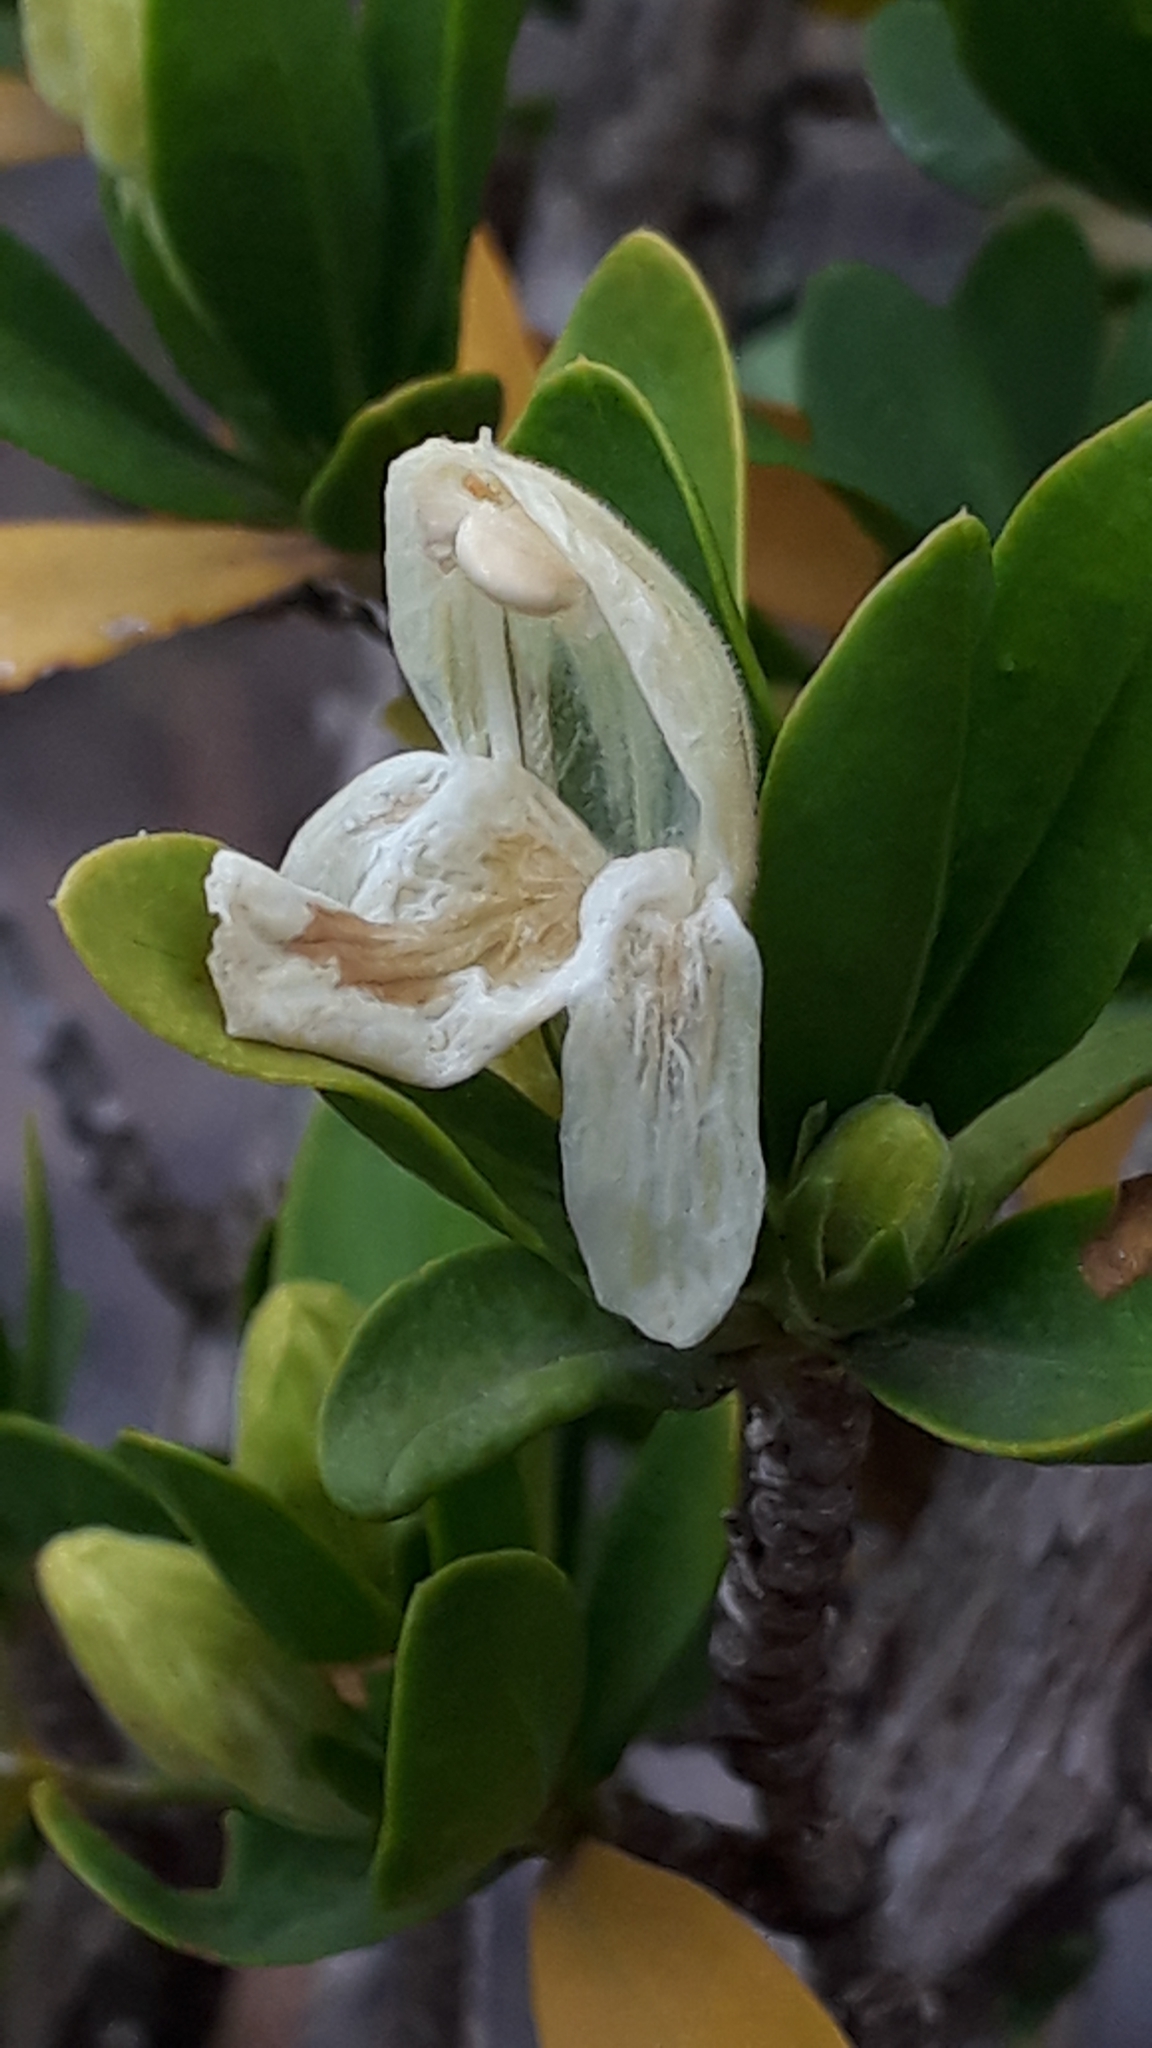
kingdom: Plantae
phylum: Tracheophyta
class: Magnoliopsida
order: Lamiales
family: Acanthaceae
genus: Justicia
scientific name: Justicia hyssopifolia
